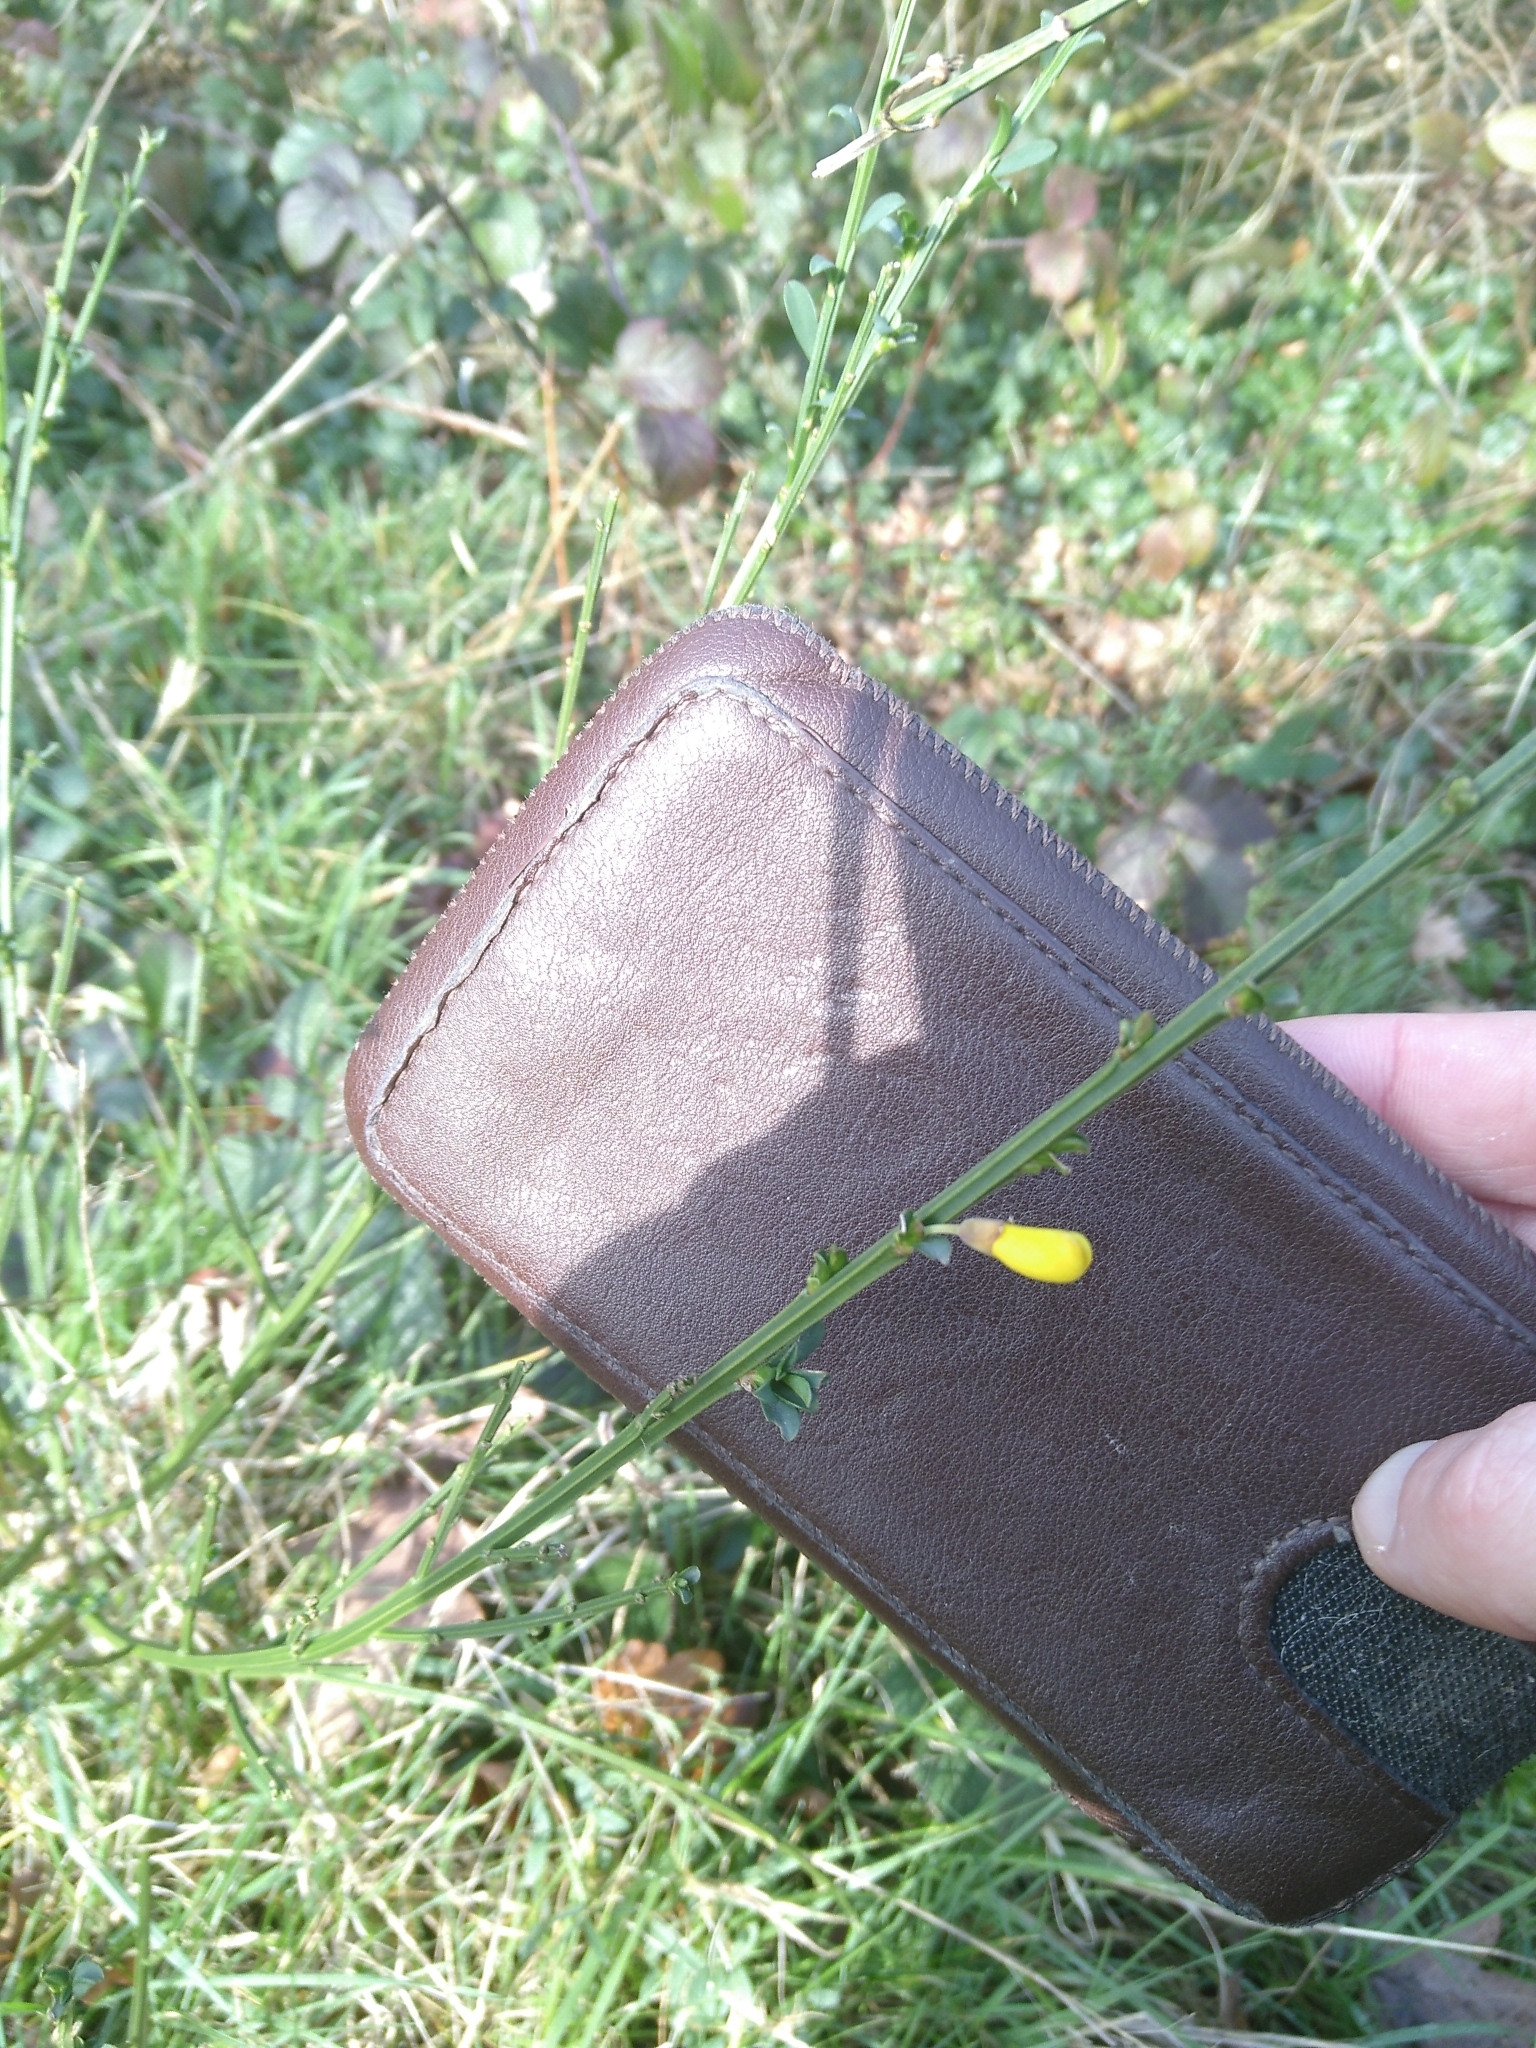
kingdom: Plantae
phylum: Tracheophyta
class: Magnoliopsida
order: Fabales
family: Fabaceae
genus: Cytisus
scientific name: Cytisus scoparius
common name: Scotch broom
